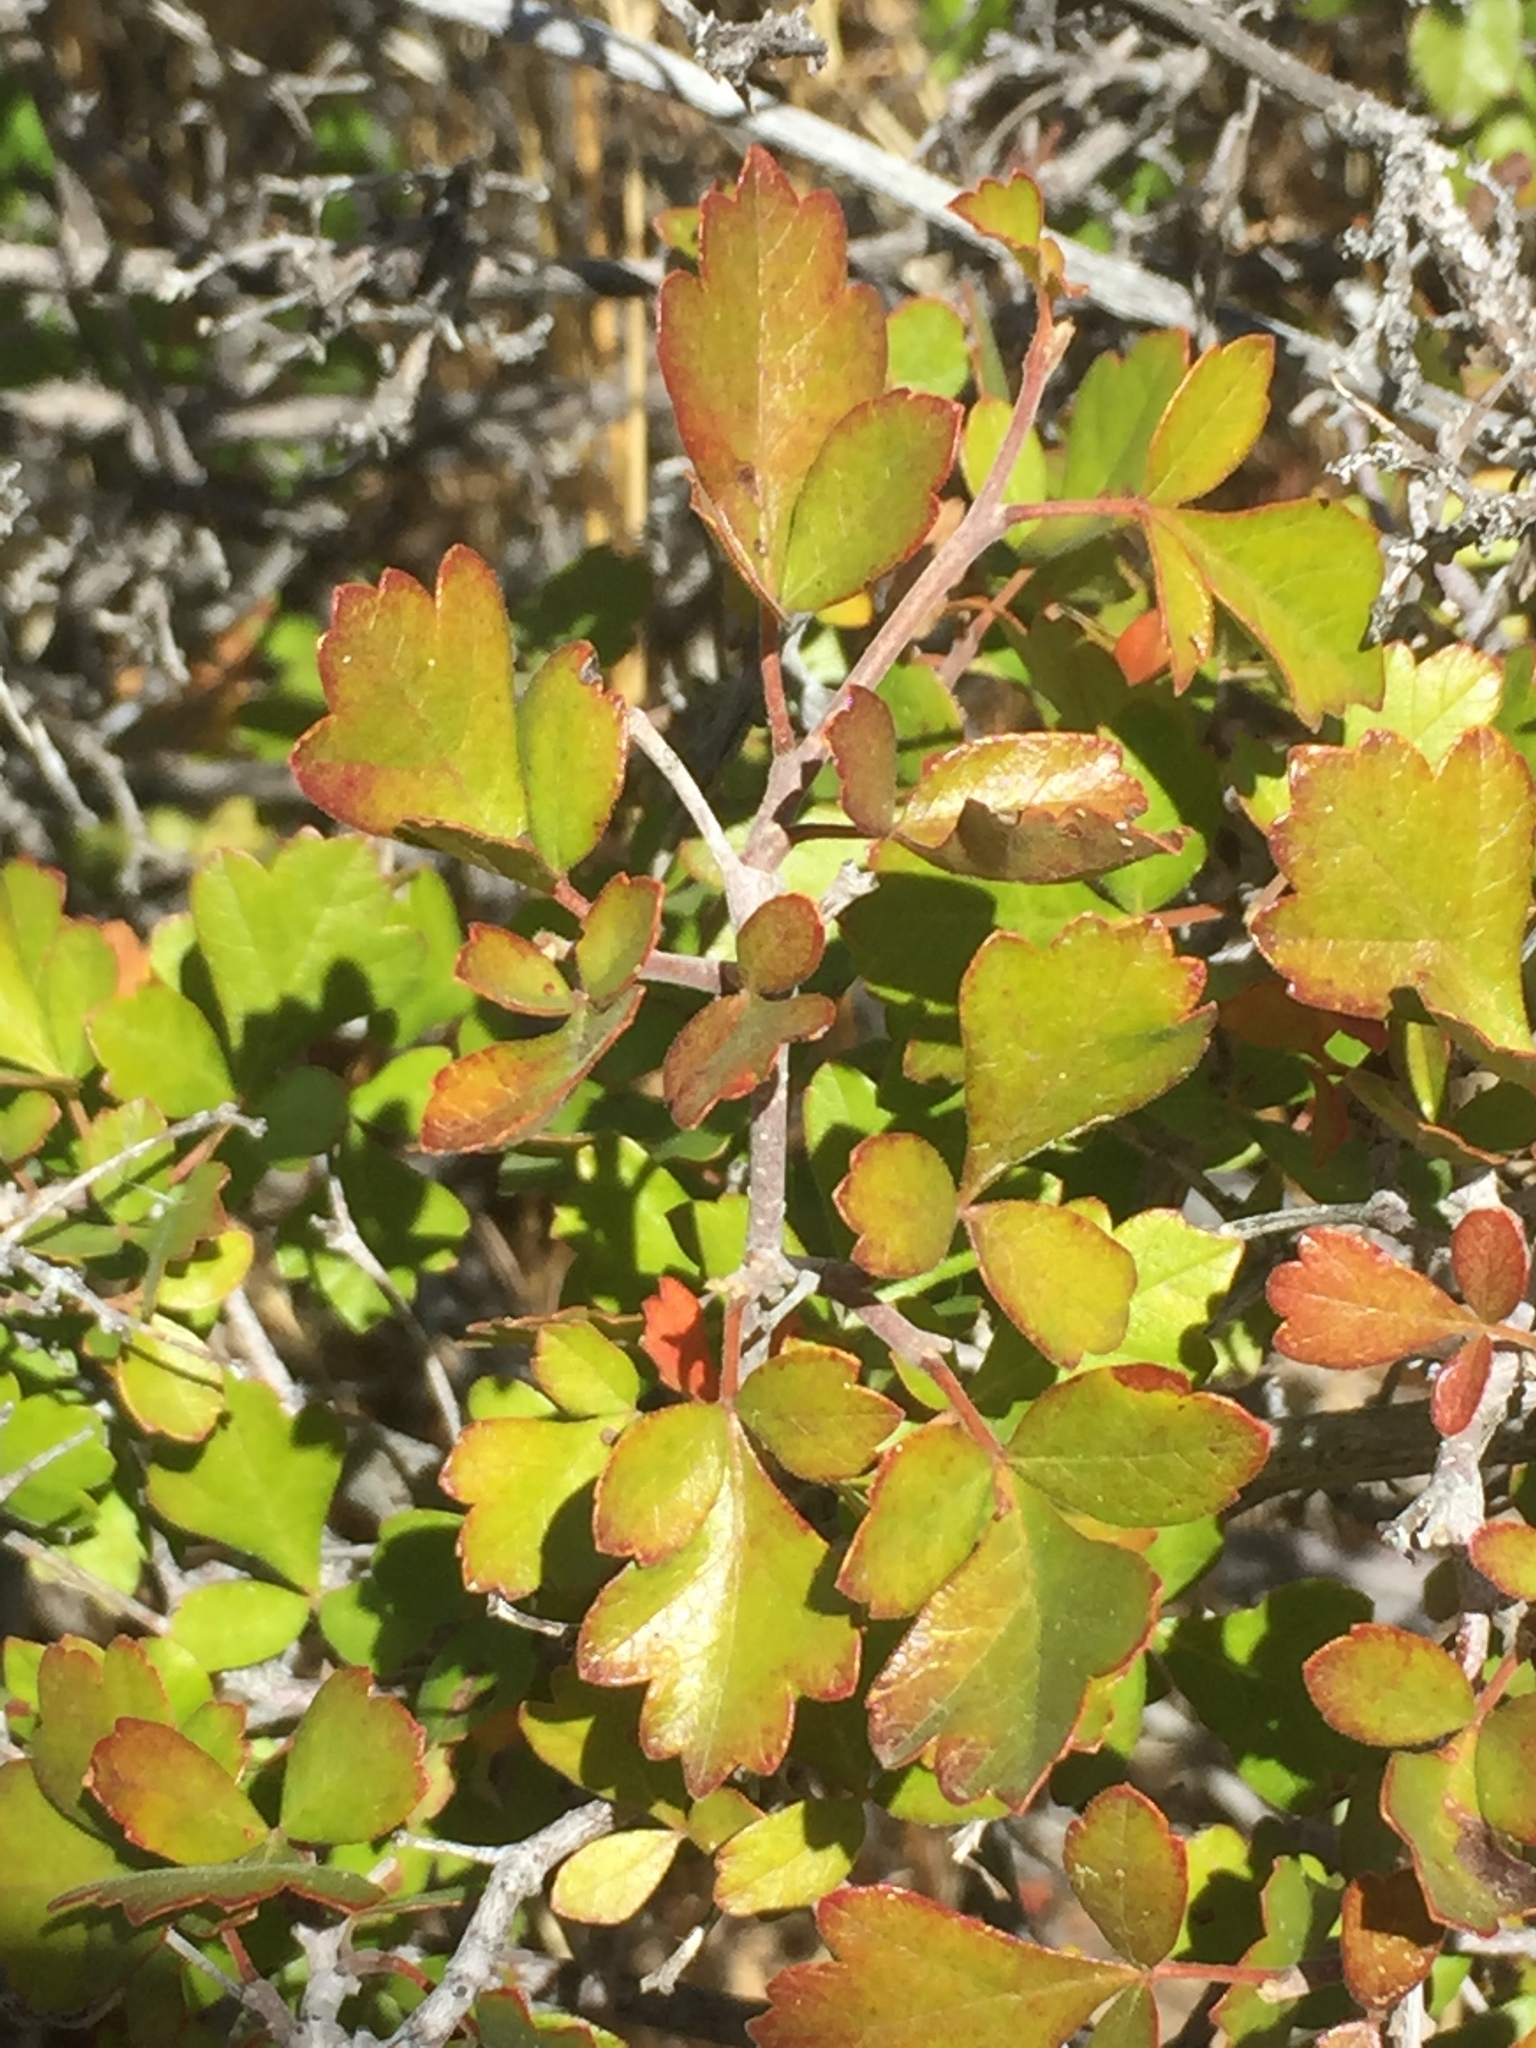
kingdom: Plantae
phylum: Tracheophyta
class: Magnoliopsida
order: Sapindales
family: Anacardiaceae
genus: Rhus
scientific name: Rhus aromatica
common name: Aromatic sumac
